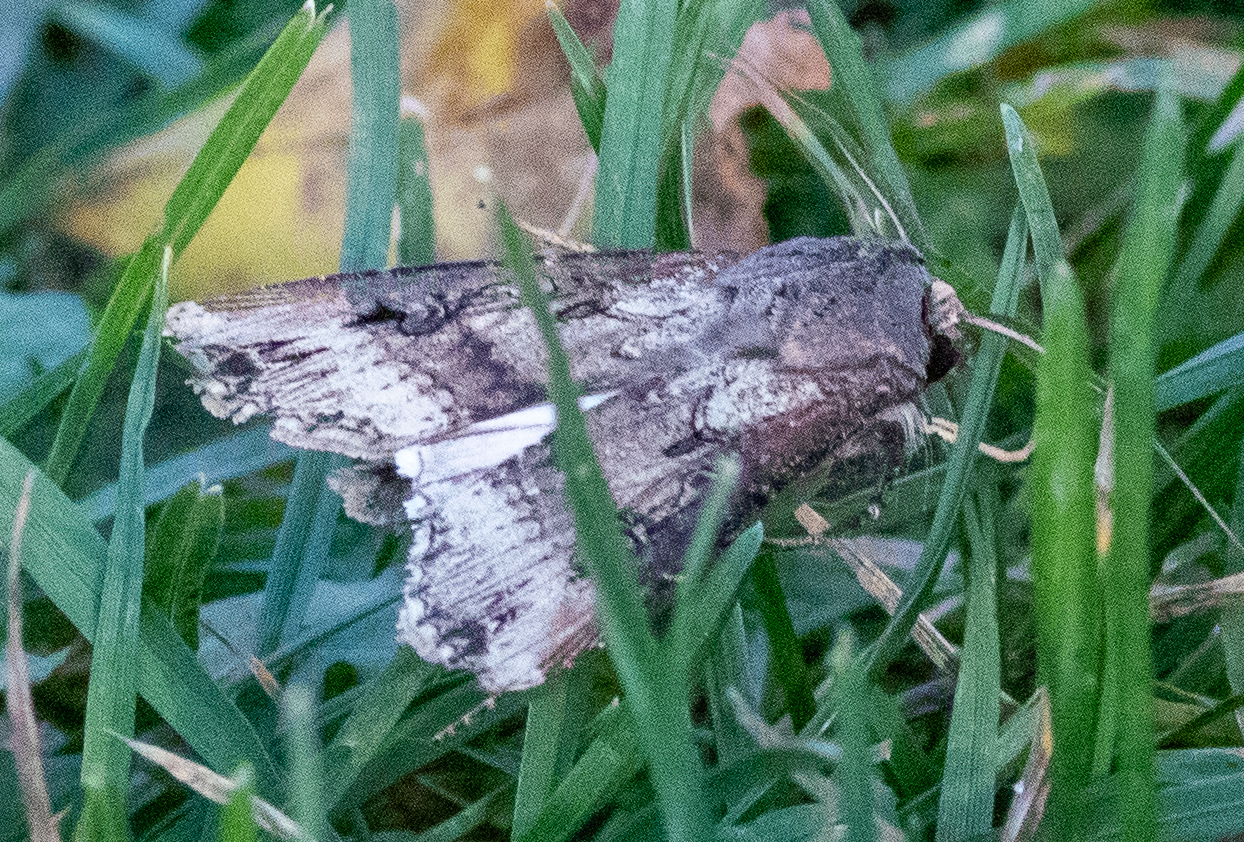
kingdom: Animalia
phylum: Arthropoda
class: Insecta
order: Lepidoptera
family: Noctuidae
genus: Agrotis
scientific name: Agrotis ipsilon
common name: Dark sword-grass
